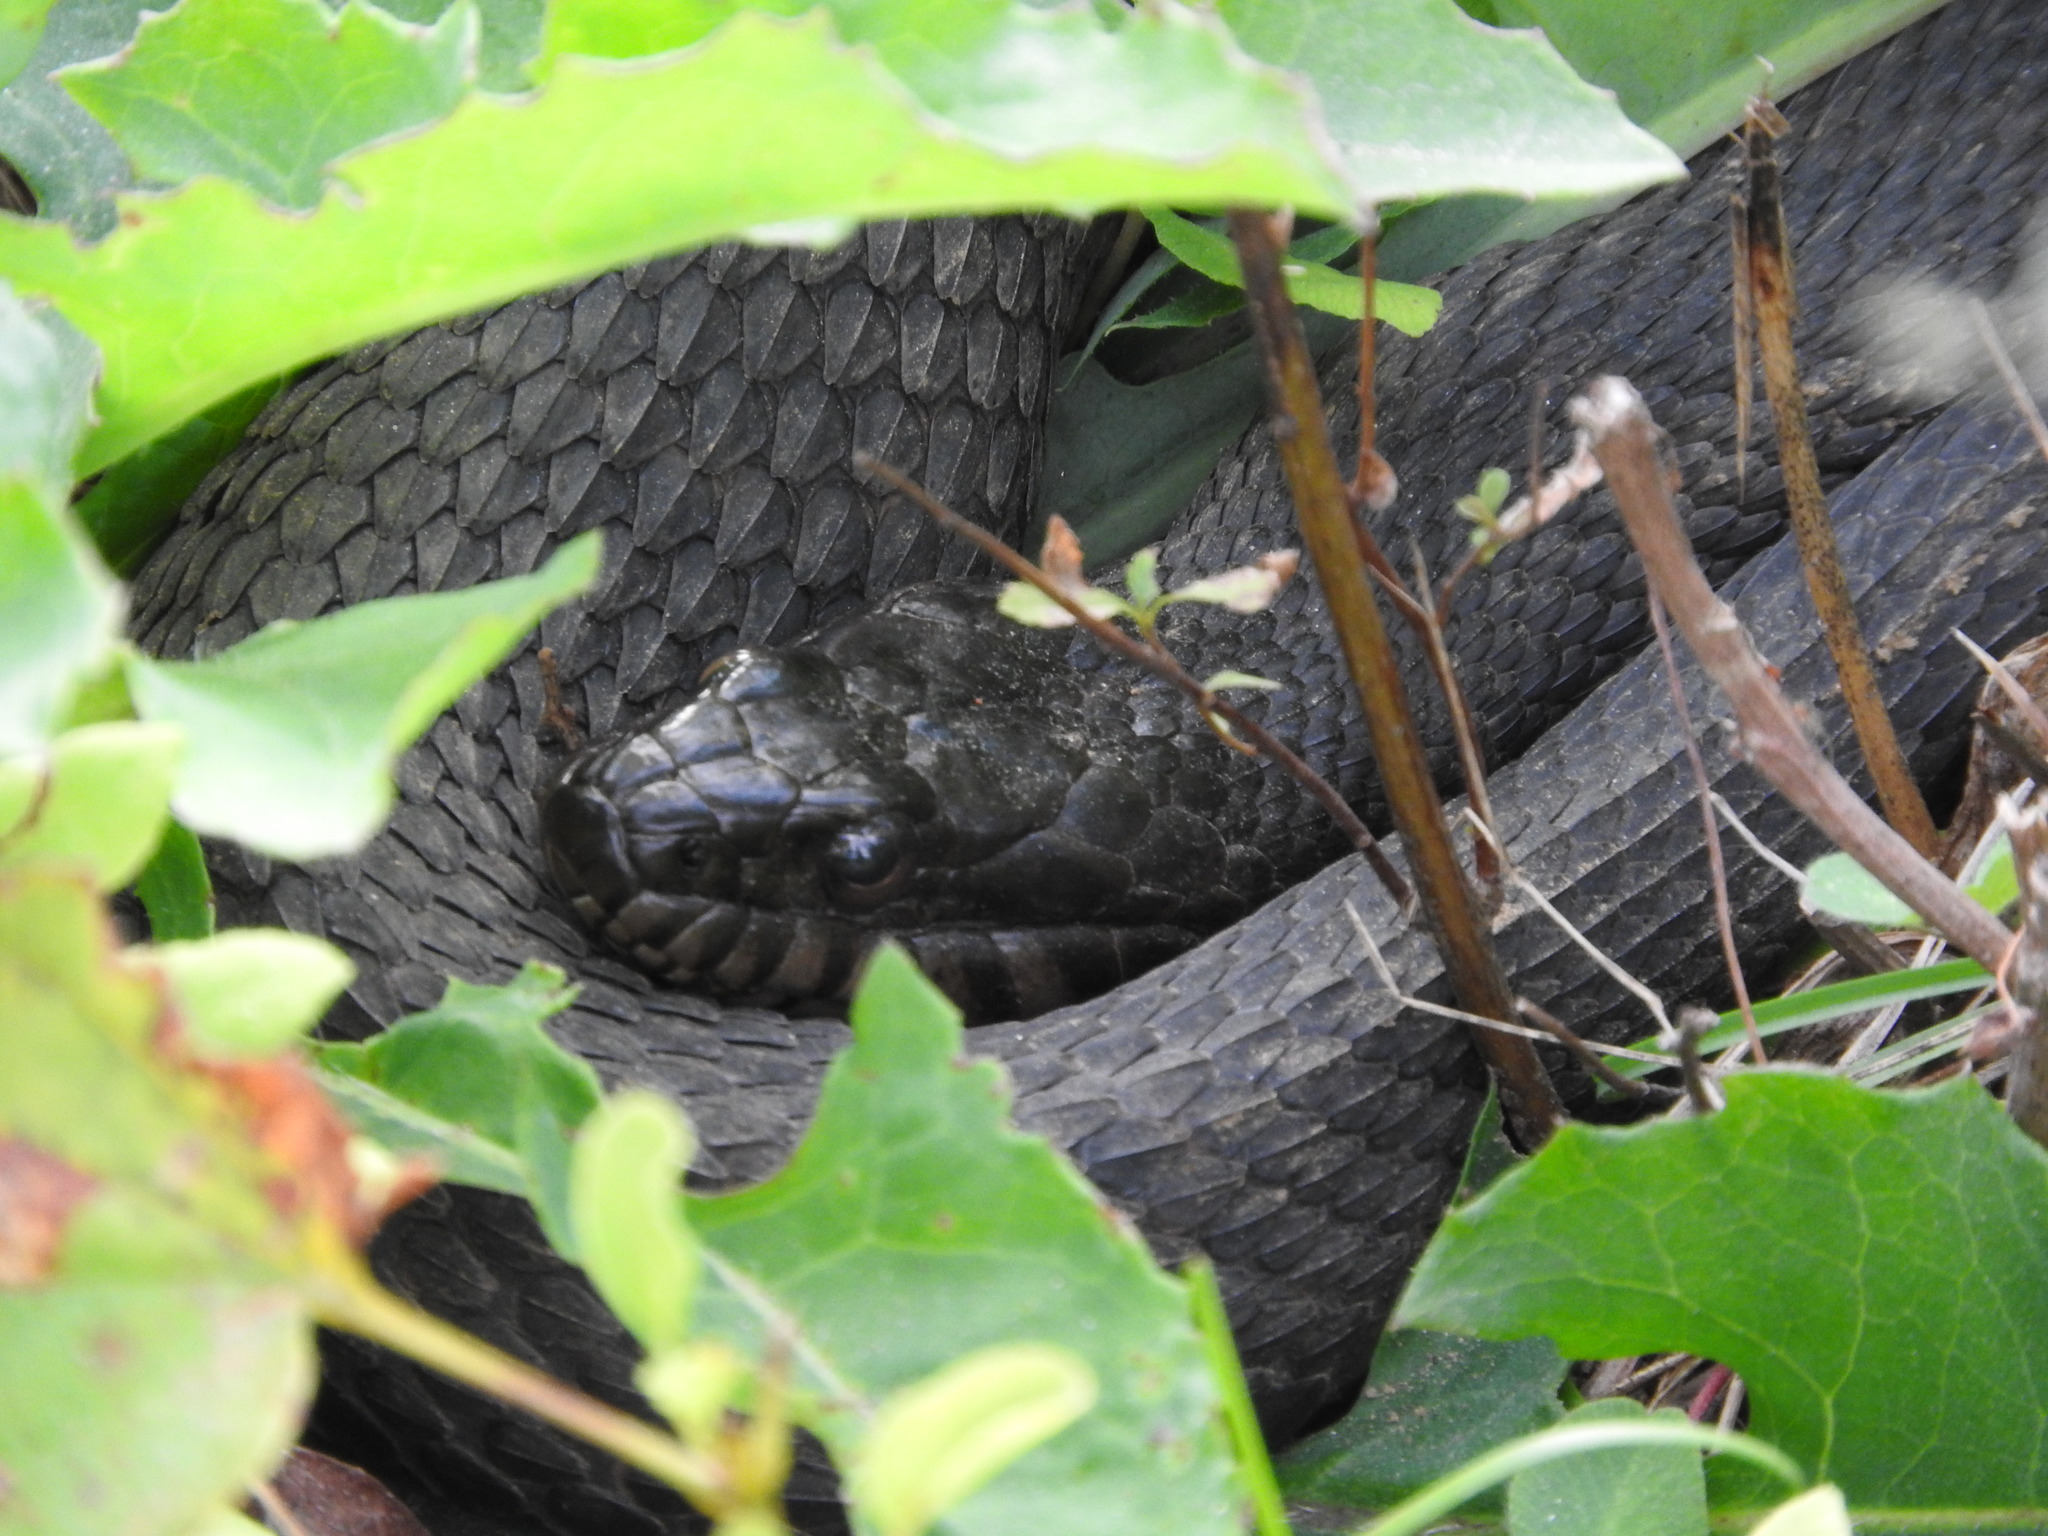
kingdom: Animalia
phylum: Chordata
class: Squamata
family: Colubridae
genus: Nerodia
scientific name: Nerodia sipedon
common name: Northern water snake
